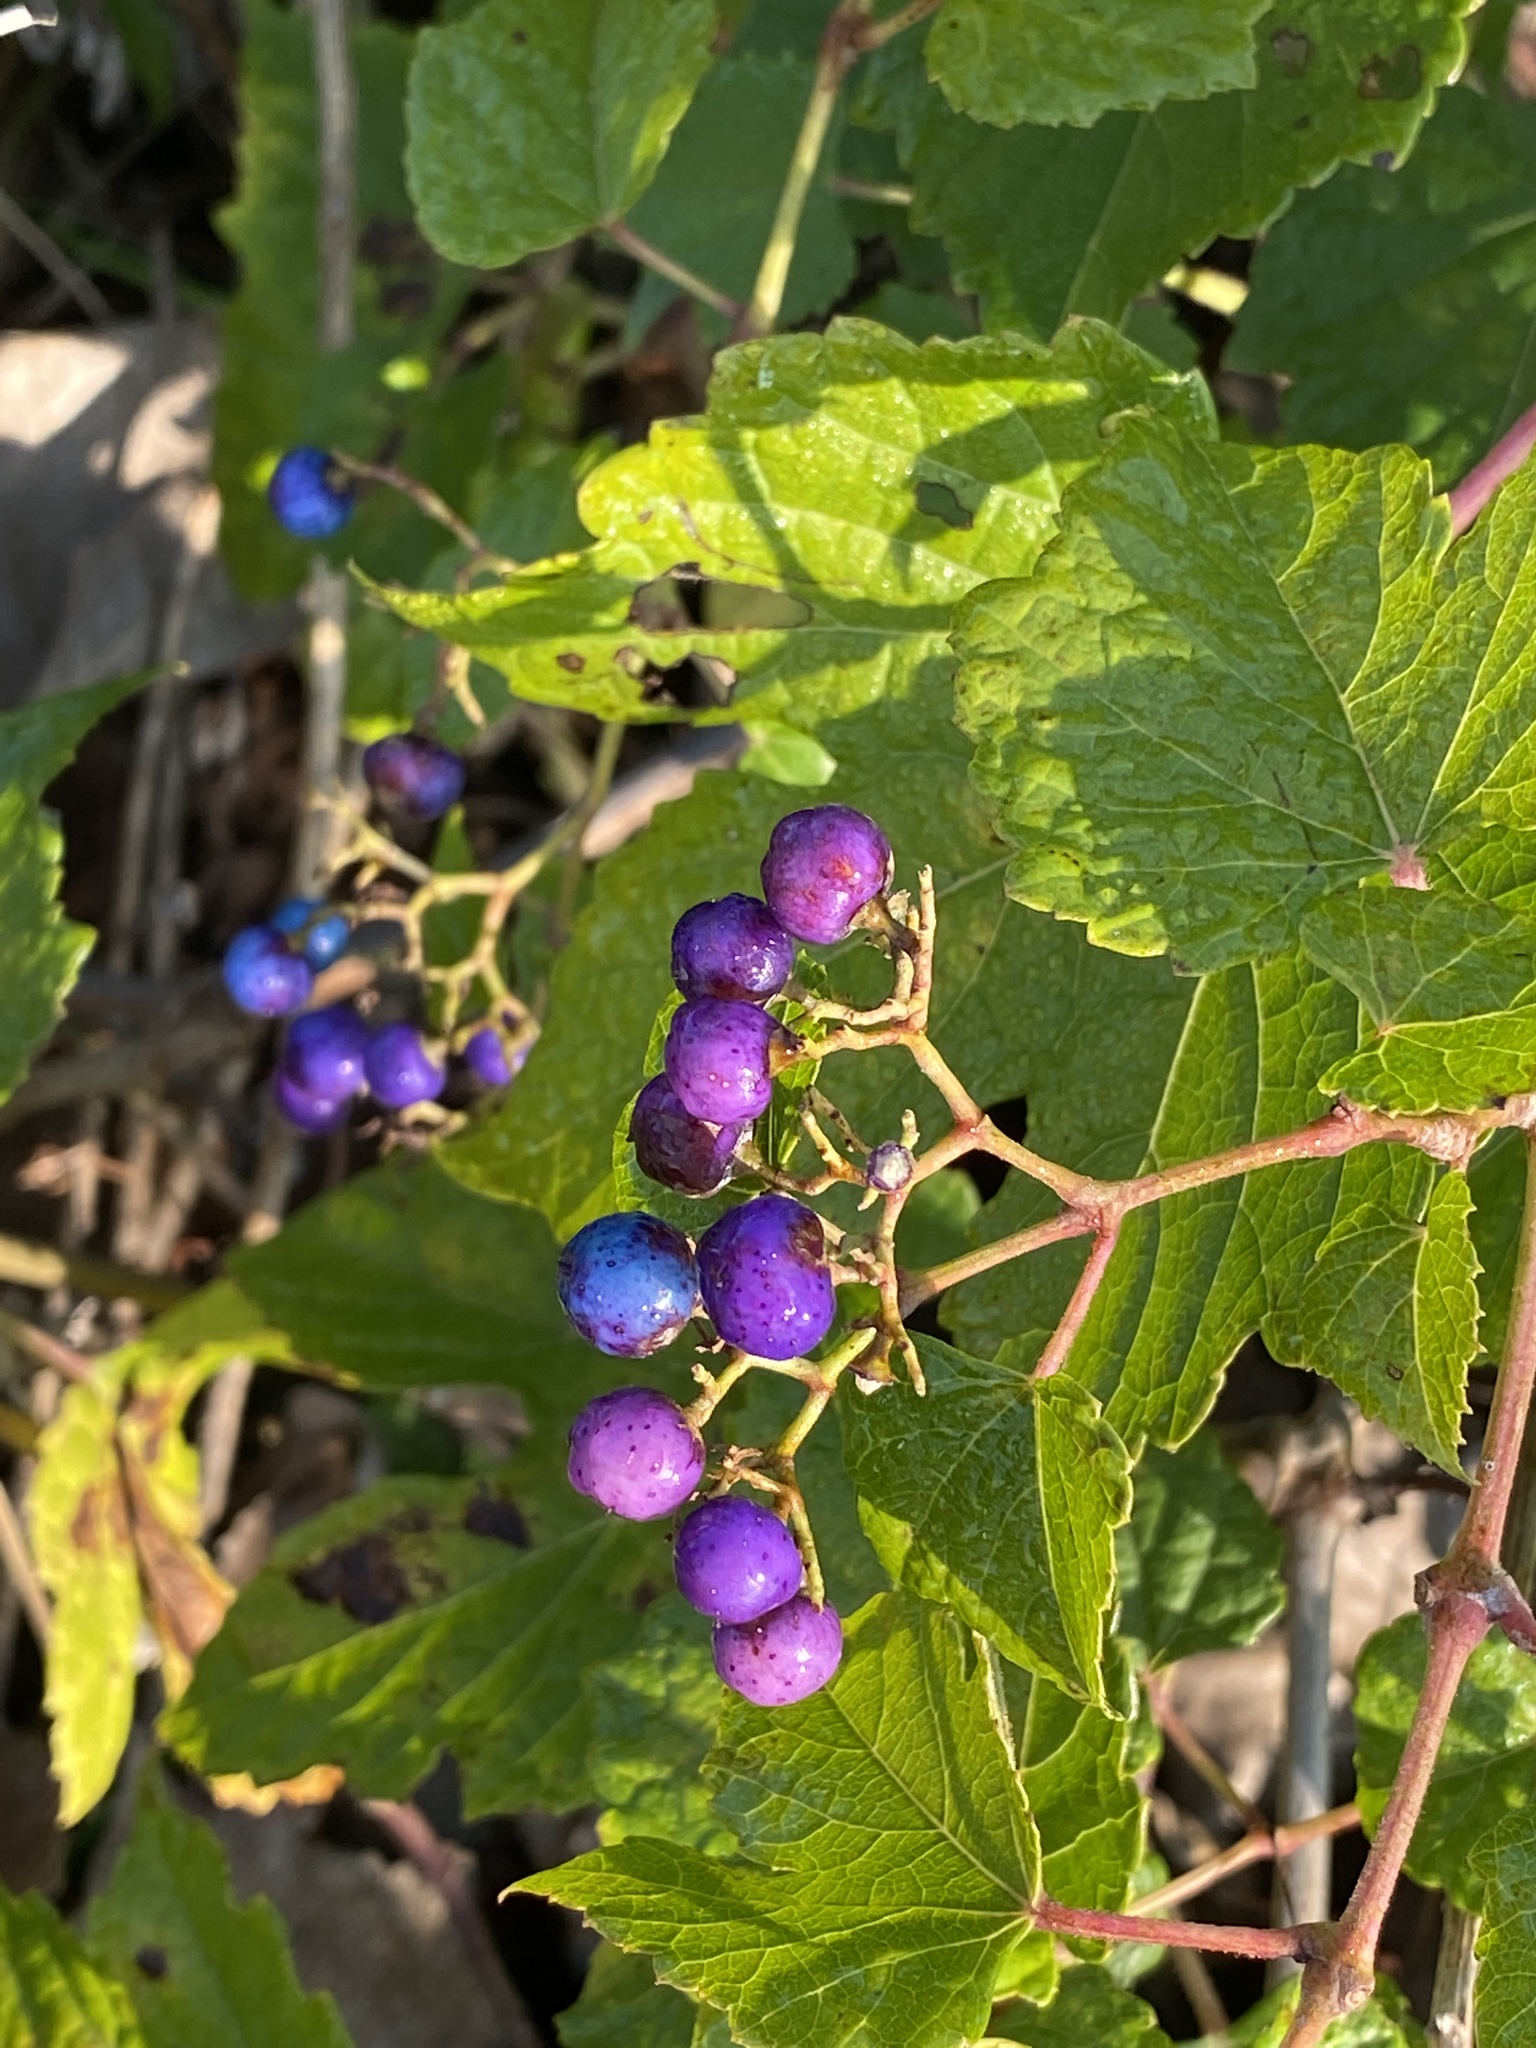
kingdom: Plantae
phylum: Tracheophyta
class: Magnoliopsida
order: Vitales
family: Vitaceae
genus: Ampelopsis
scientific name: Ampelopsis glandulosa
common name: Amur peppervine
